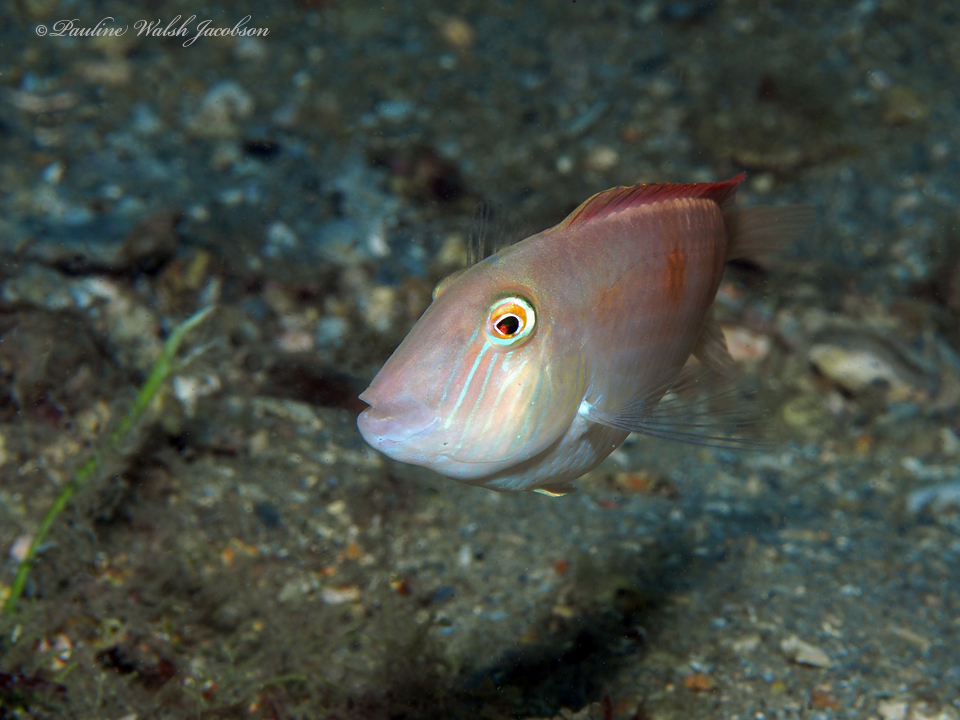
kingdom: Animalia
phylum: Chordata
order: Perciformes
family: Labridae
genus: Xyrichtys
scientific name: Xyrichtys novacula
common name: Pearly razorfish
